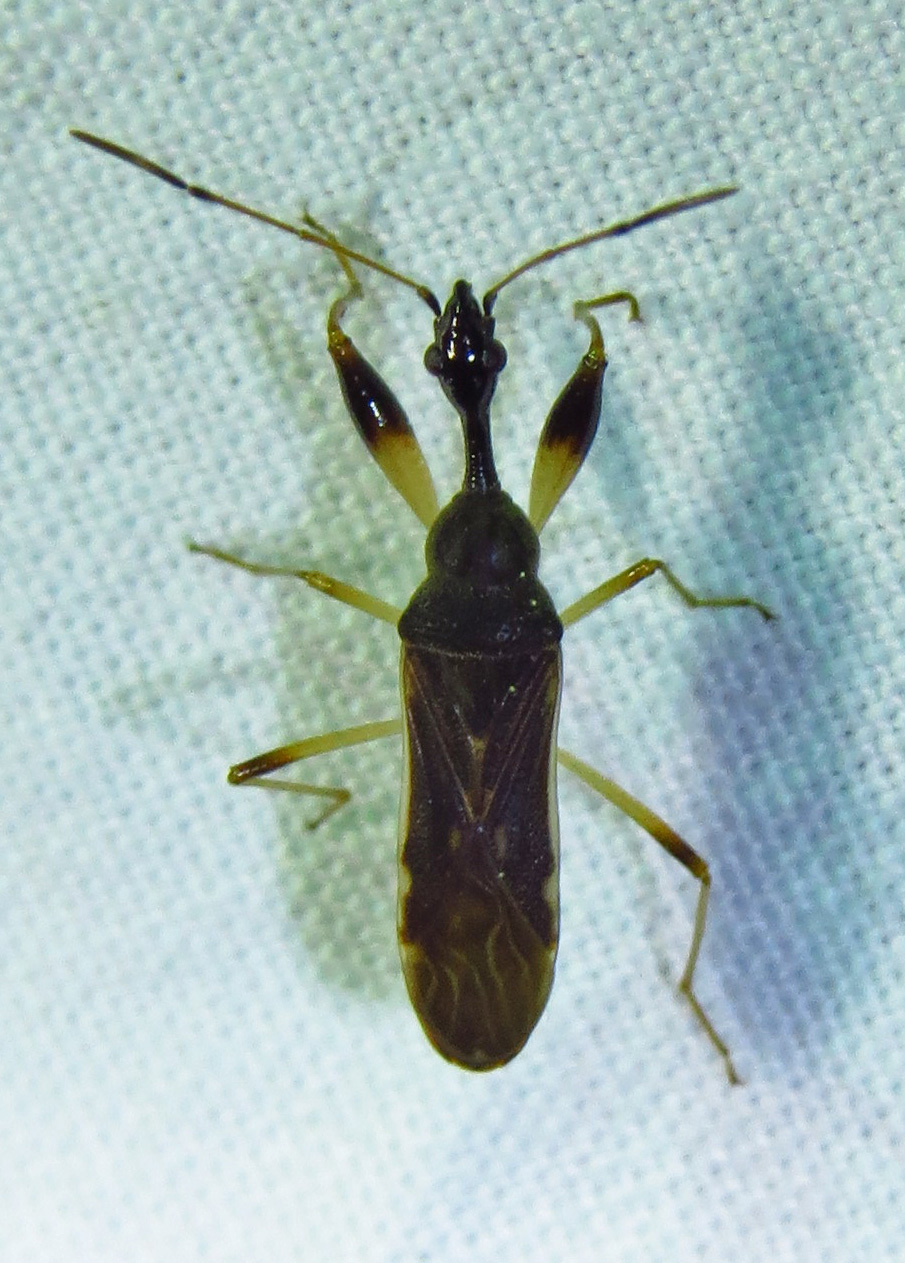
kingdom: Animalia
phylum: Arthropoda
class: Insecta
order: Hemiptera
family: Rhyparochromidae
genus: Myodocha
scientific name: Myodocha serripes
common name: Long-necked seed bug
